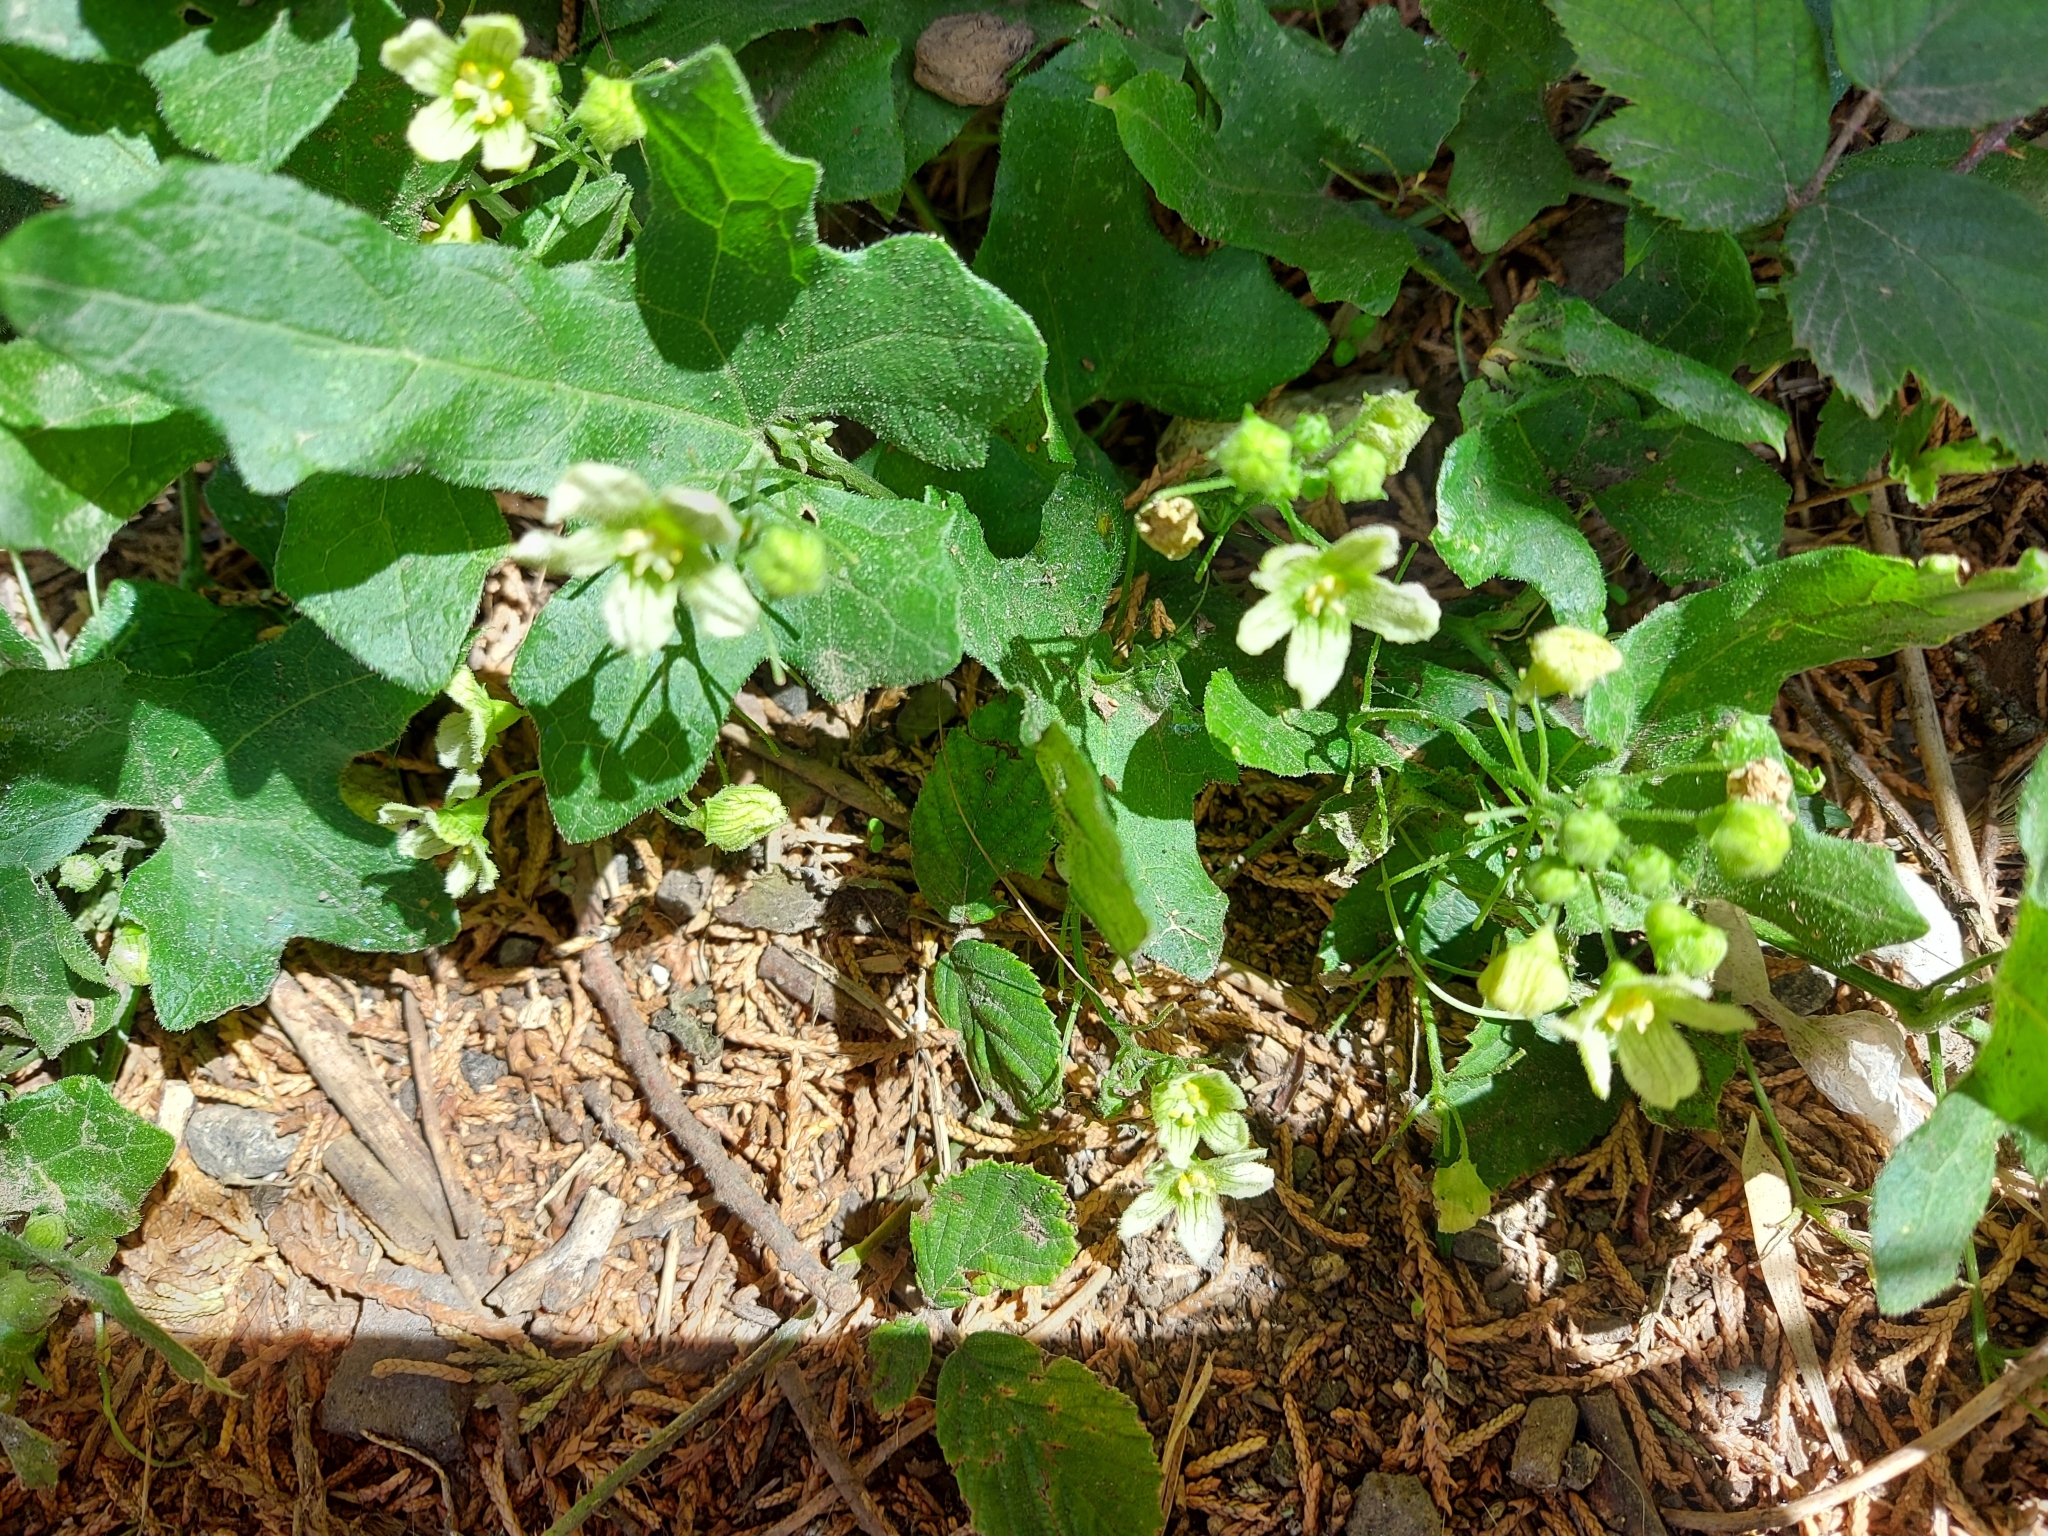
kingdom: Plantae
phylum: Tracheophyta
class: Magnoliopsida
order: Cucurbitales
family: Cucurbitaceae
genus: Bryonia
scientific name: Bryonia cretica
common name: Cretan bryony
